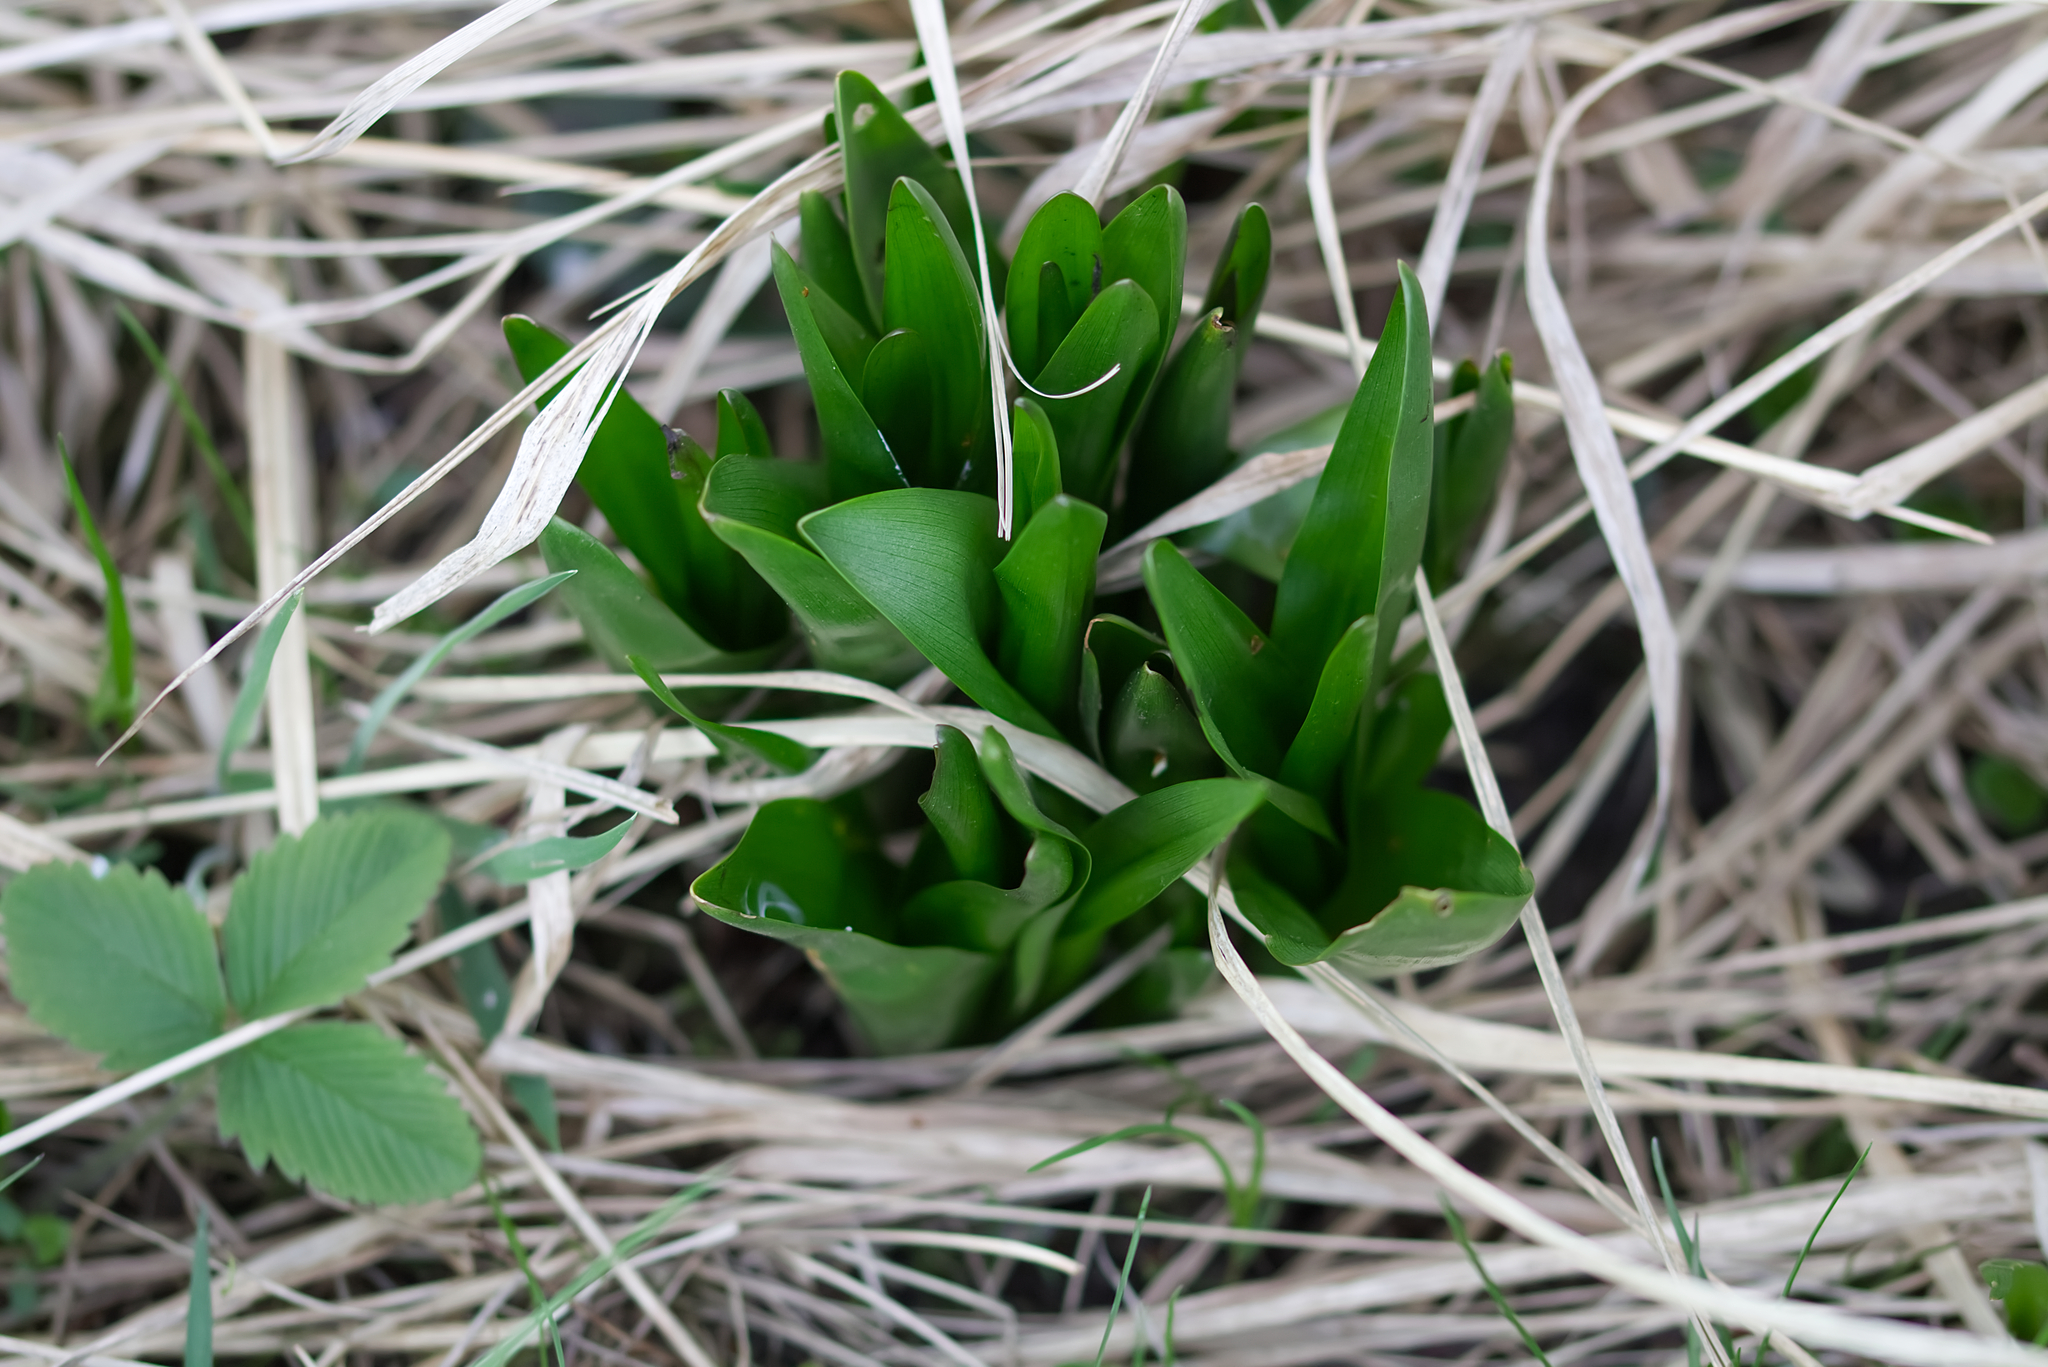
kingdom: Plantae
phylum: Tracheophyta
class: Liliopsida
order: Liliales
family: Colchicaceae
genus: Colchicum
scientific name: Colchicum autumnale
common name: Autumn crocus
